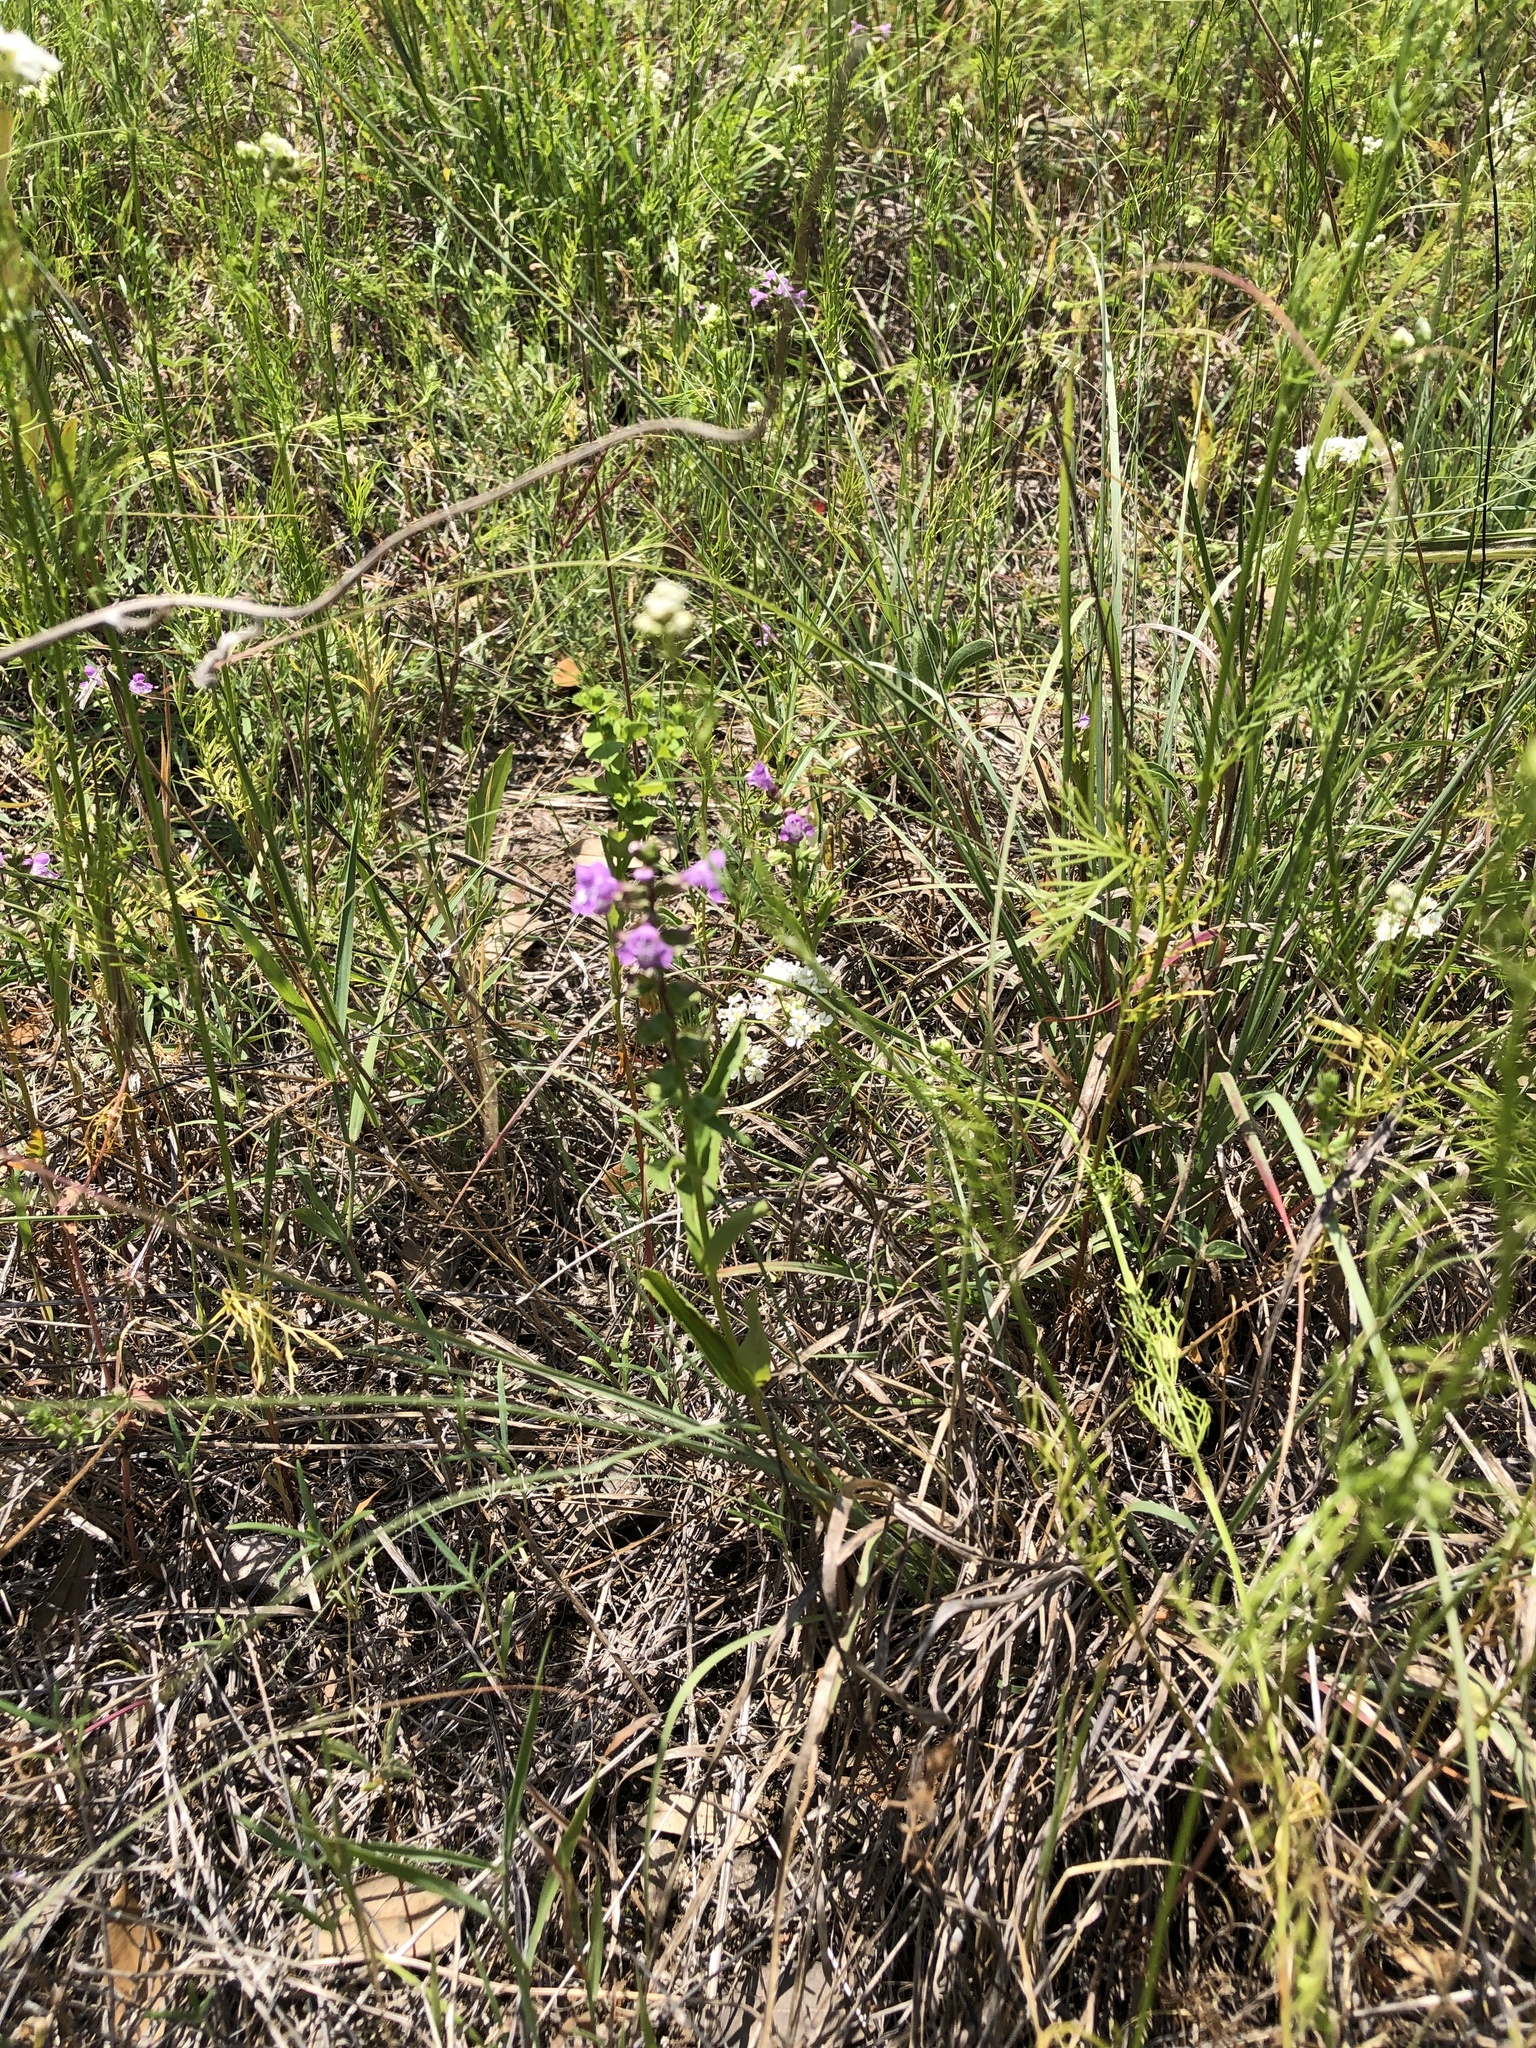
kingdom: Plantae
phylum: Tracheophyta
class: Magnoliopsida
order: Lamiales
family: Lamiaceae
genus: Warnockia
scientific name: Warnockia scutellarioides
